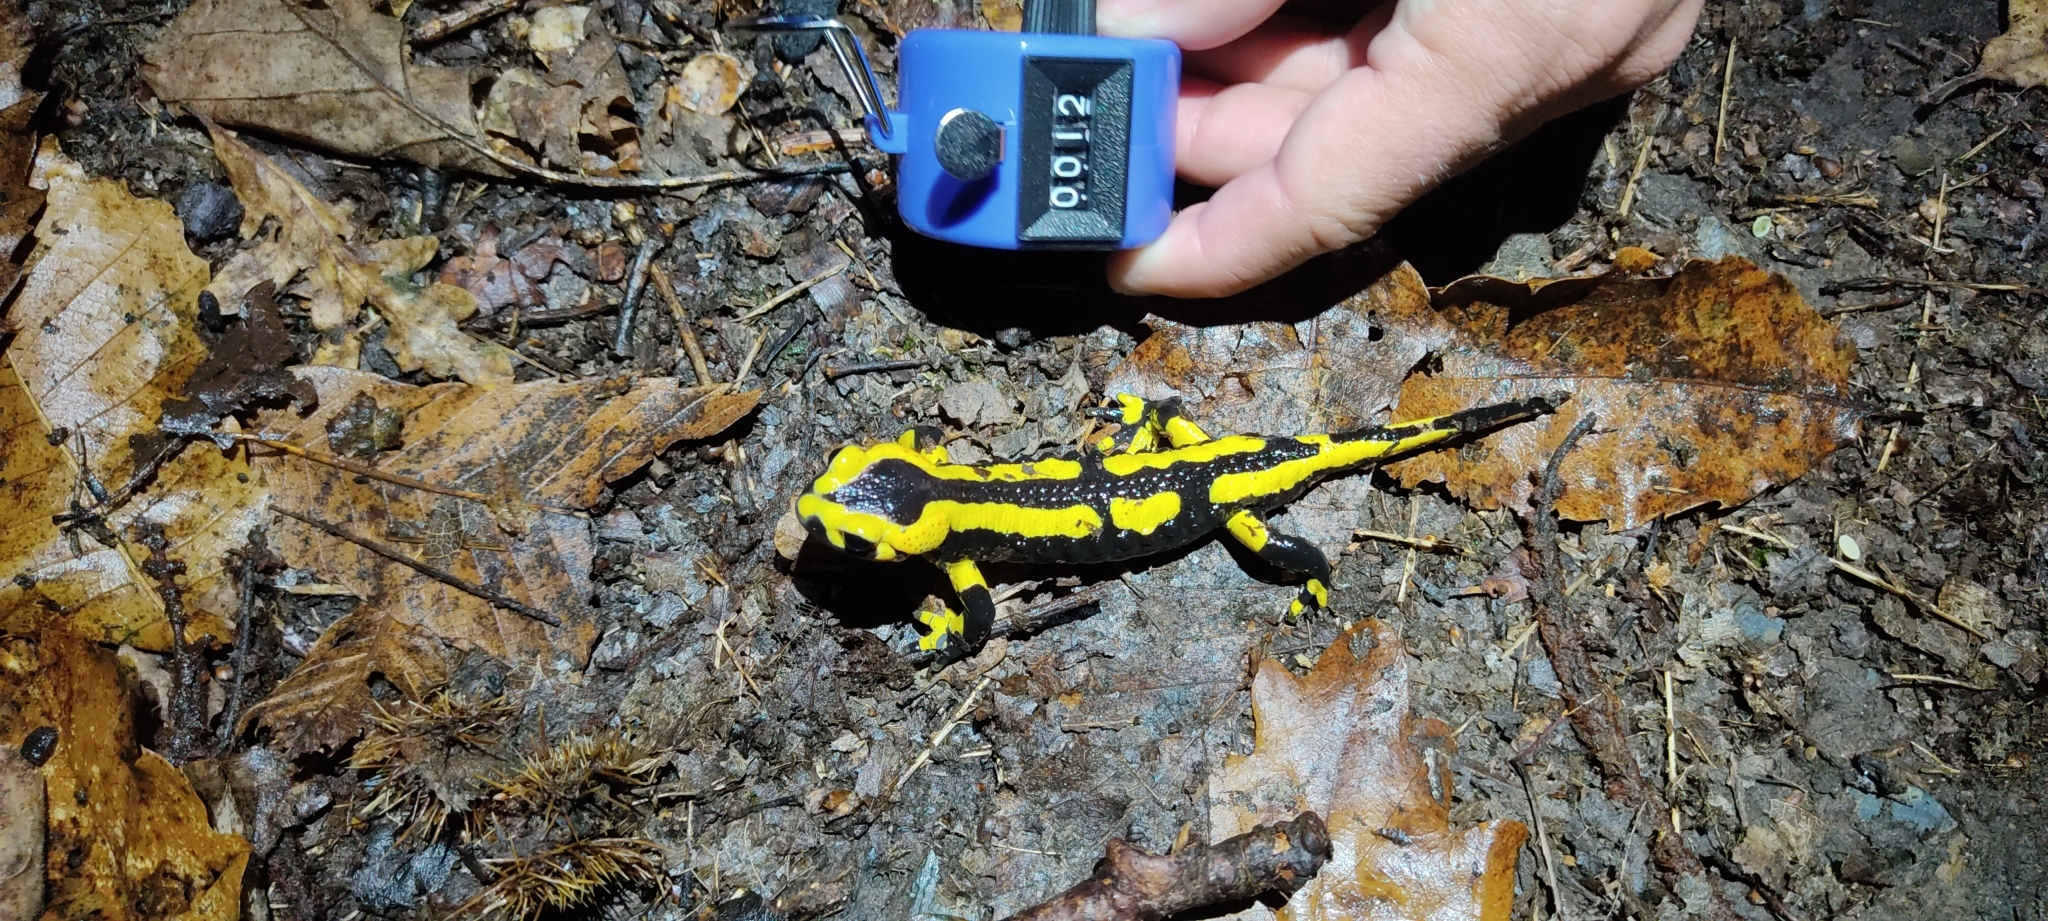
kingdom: Animalia
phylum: Chordata
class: Amphibia
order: Caudata
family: Salamandridae
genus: Salamandra
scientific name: Salamandra salamandra
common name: Fire salamander
